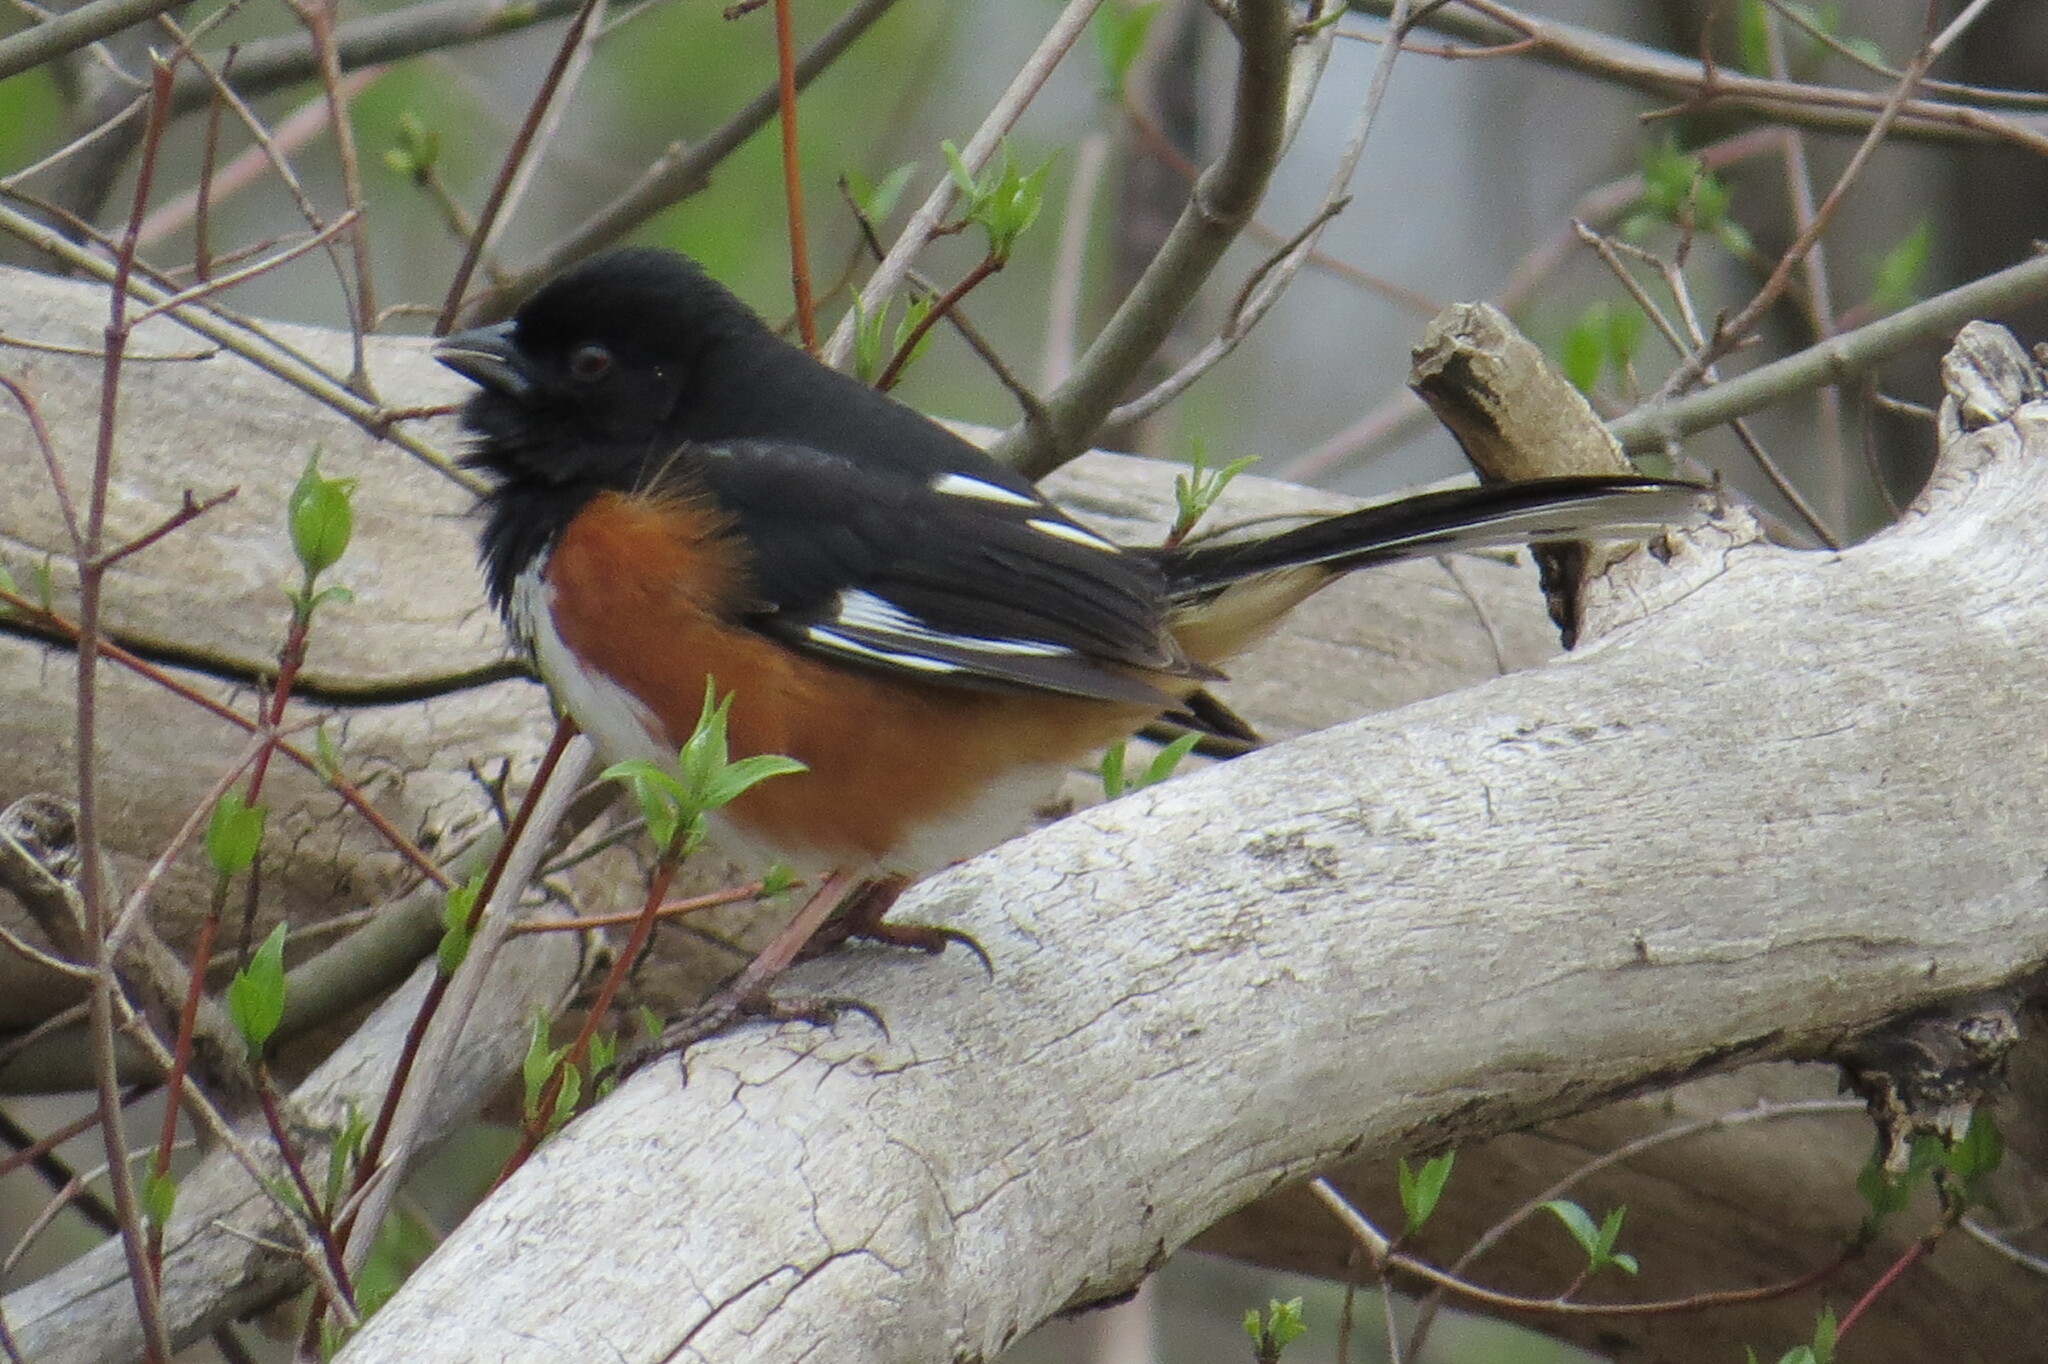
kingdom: Animalia
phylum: Chordata
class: Aves
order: Passeriformes
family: Passerellidae
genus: Pipilo
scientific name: Pipilo erythrophthalmus
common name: Eastern towhee
